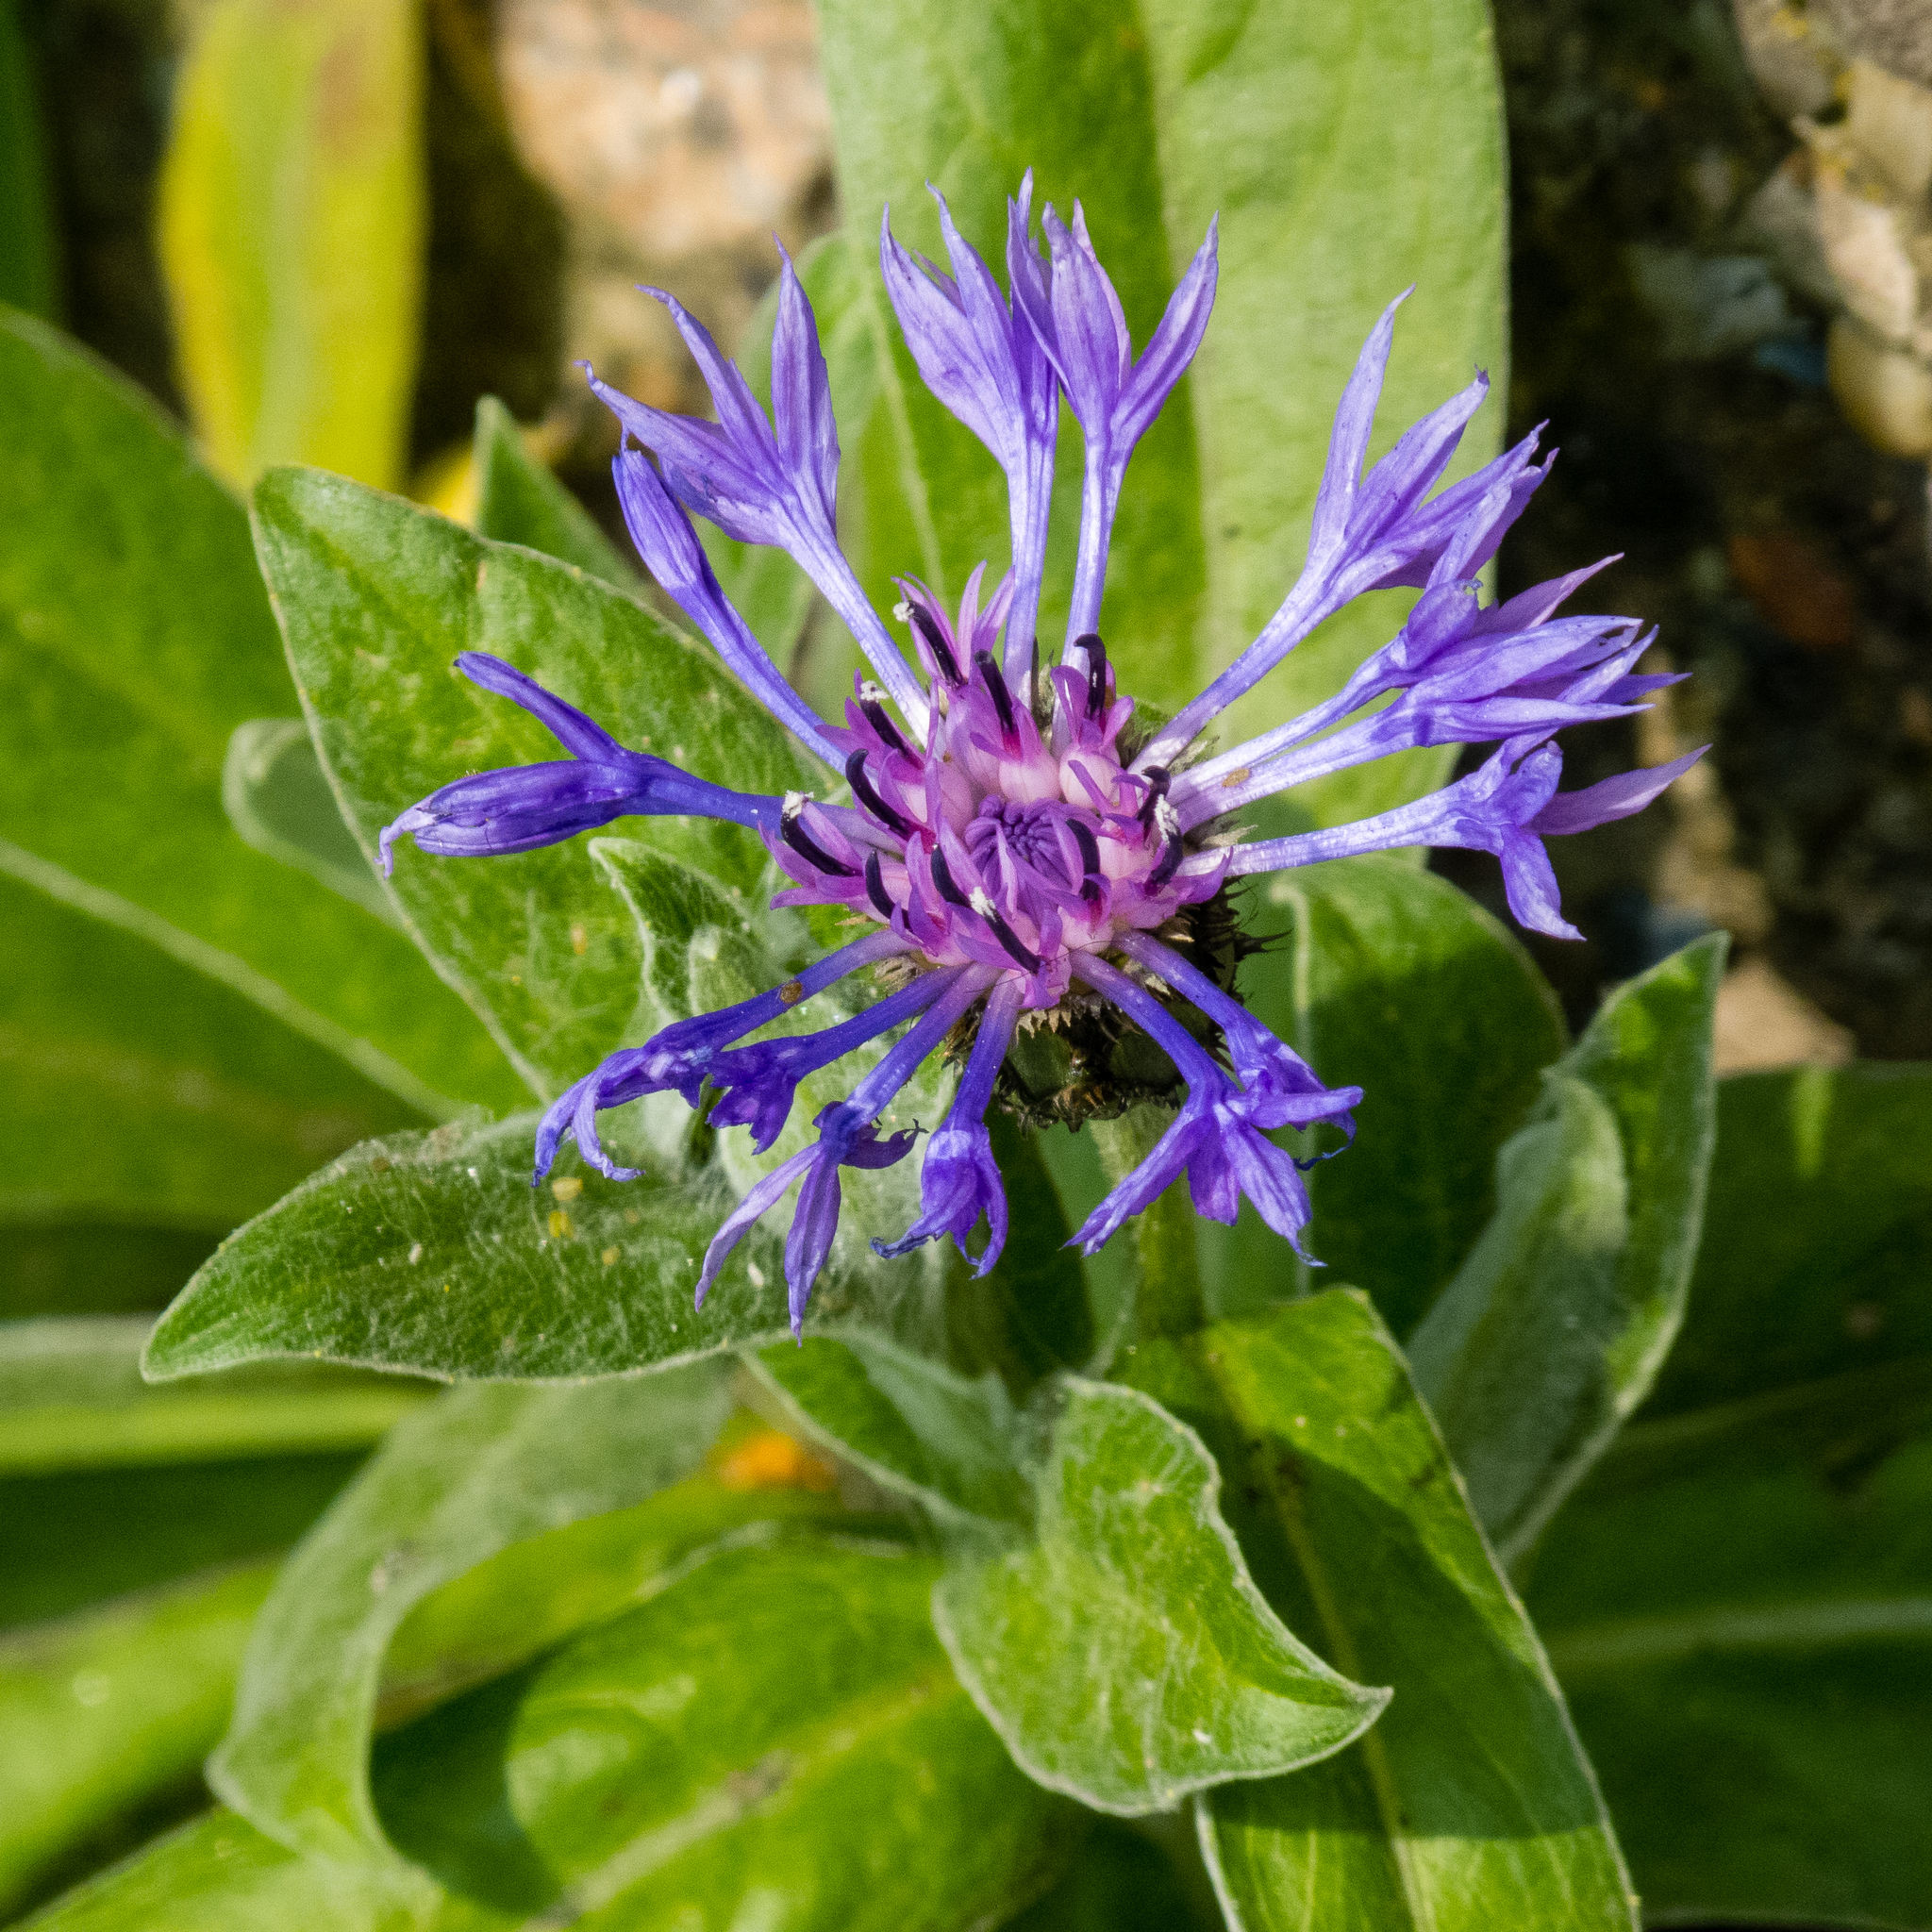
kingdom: Plantae
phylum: Tracheophyta
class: Magnoliopsida
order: Asterales
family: Asteraceae
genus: Centaurea
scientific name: Centaurea montana
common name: Perennial cornflower
